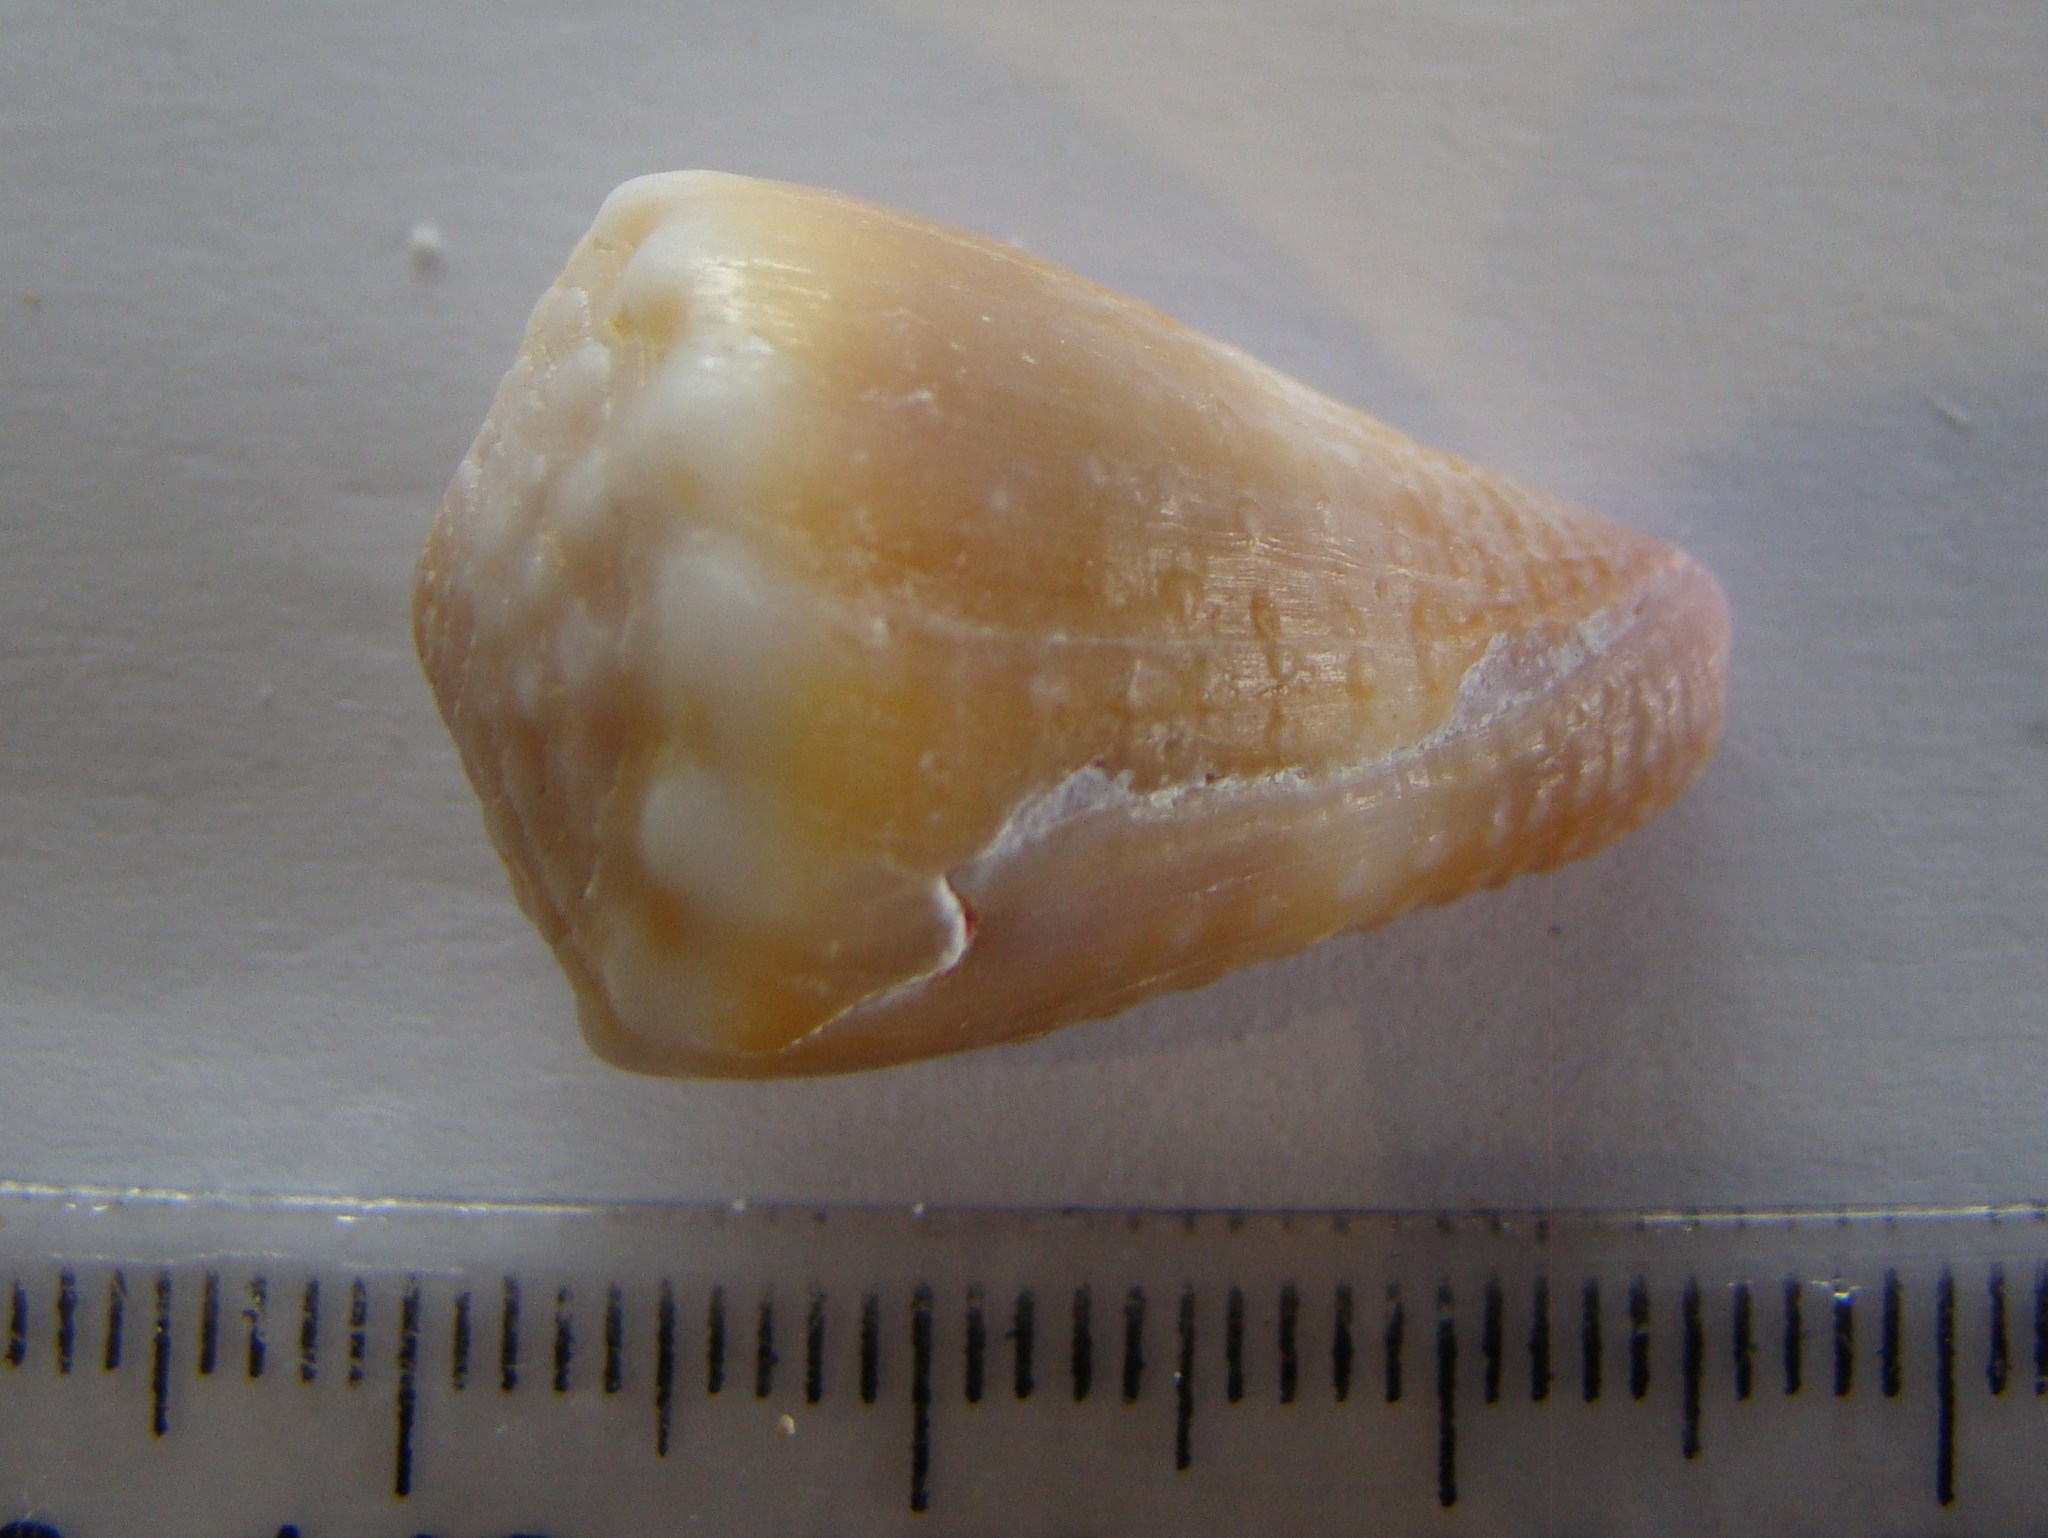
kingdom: Animalia
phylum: Mollusca
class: Gastropoda
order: Neogastropoda
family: Conidae
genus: Conus
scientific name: Conus miliaris
